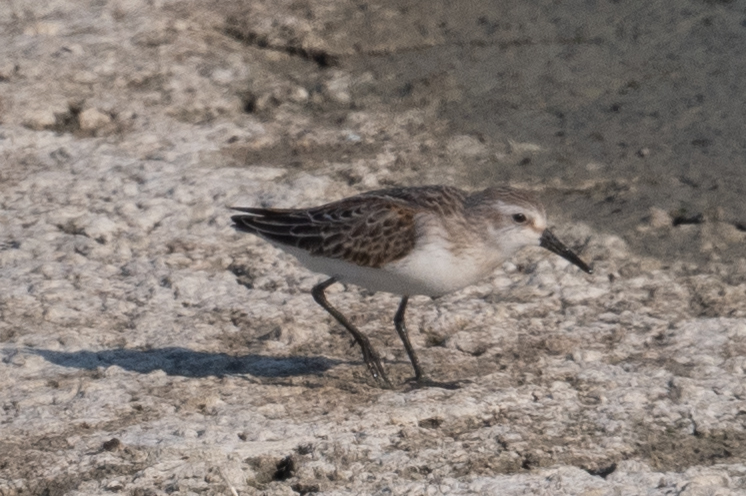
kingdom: Animalia
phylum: Chordata
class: Aves
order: Charadriiformes
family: Scolopacidae
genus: Calidris
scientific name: Calidris mauri
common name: Western sandpiper
